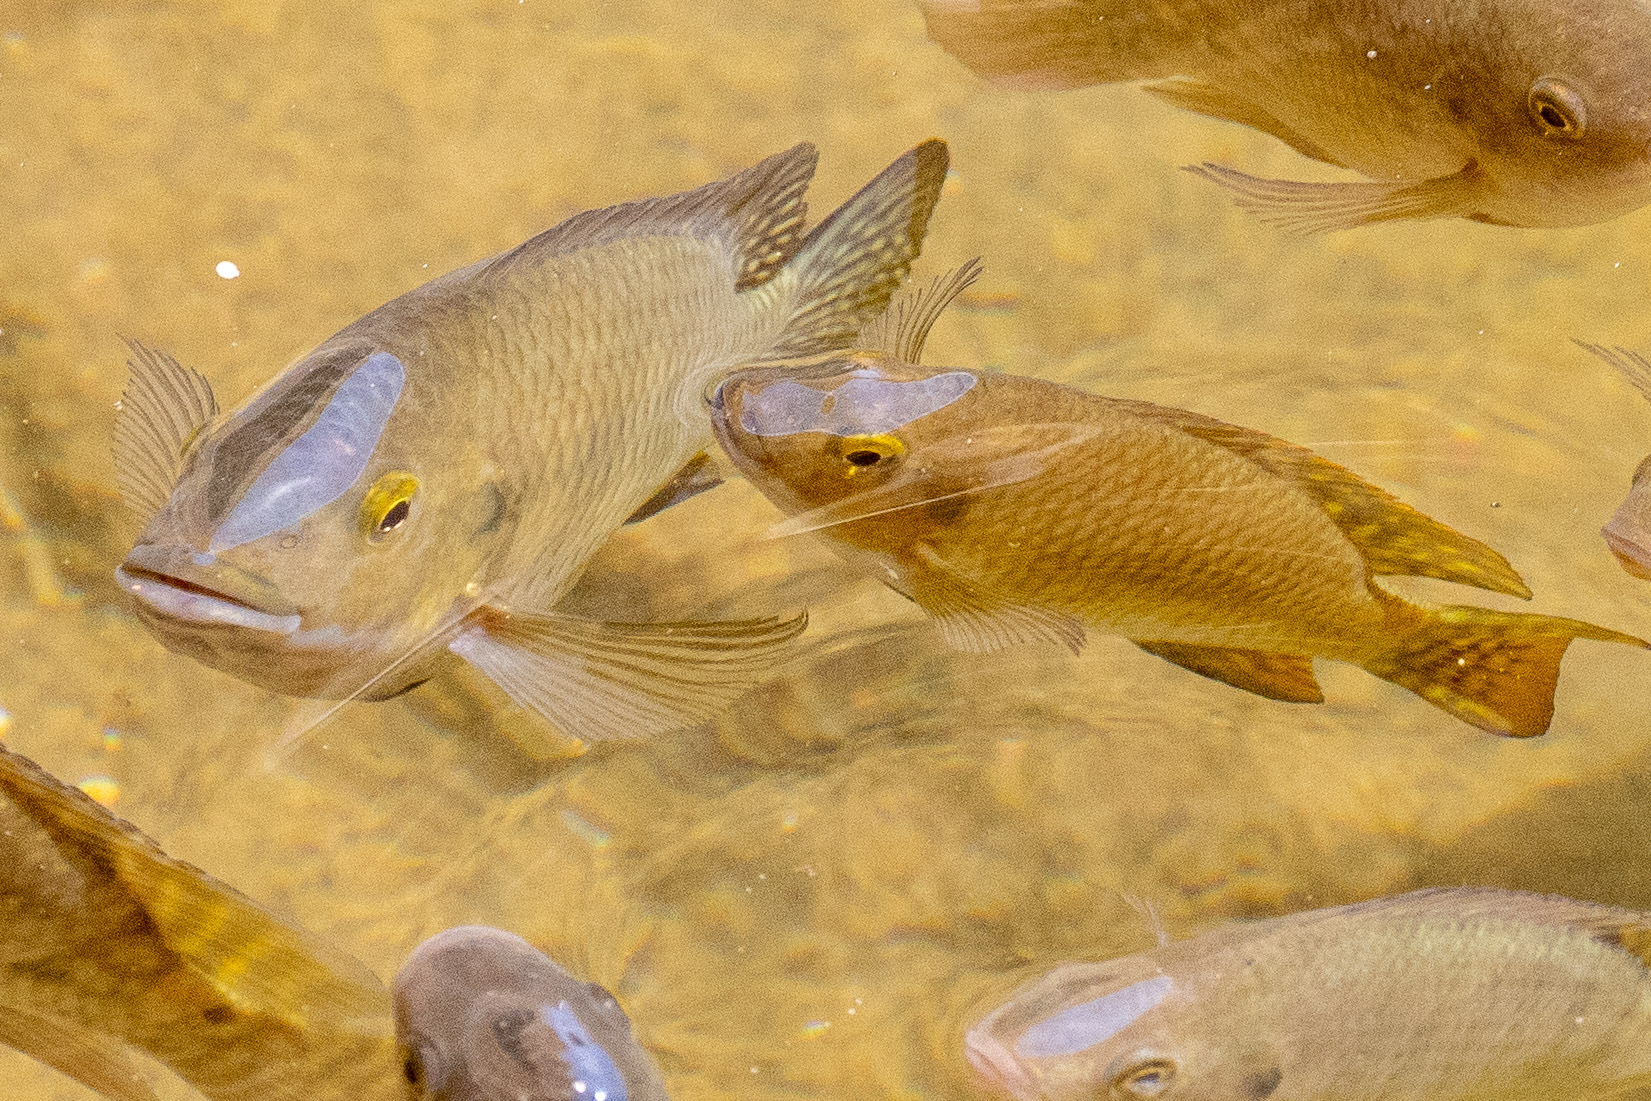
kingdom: Animalia
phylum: Chordata
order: Perciformes
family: Cichlidae
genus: Coptodon
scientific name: Coptodon zillii
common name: Redbelly tilapia
